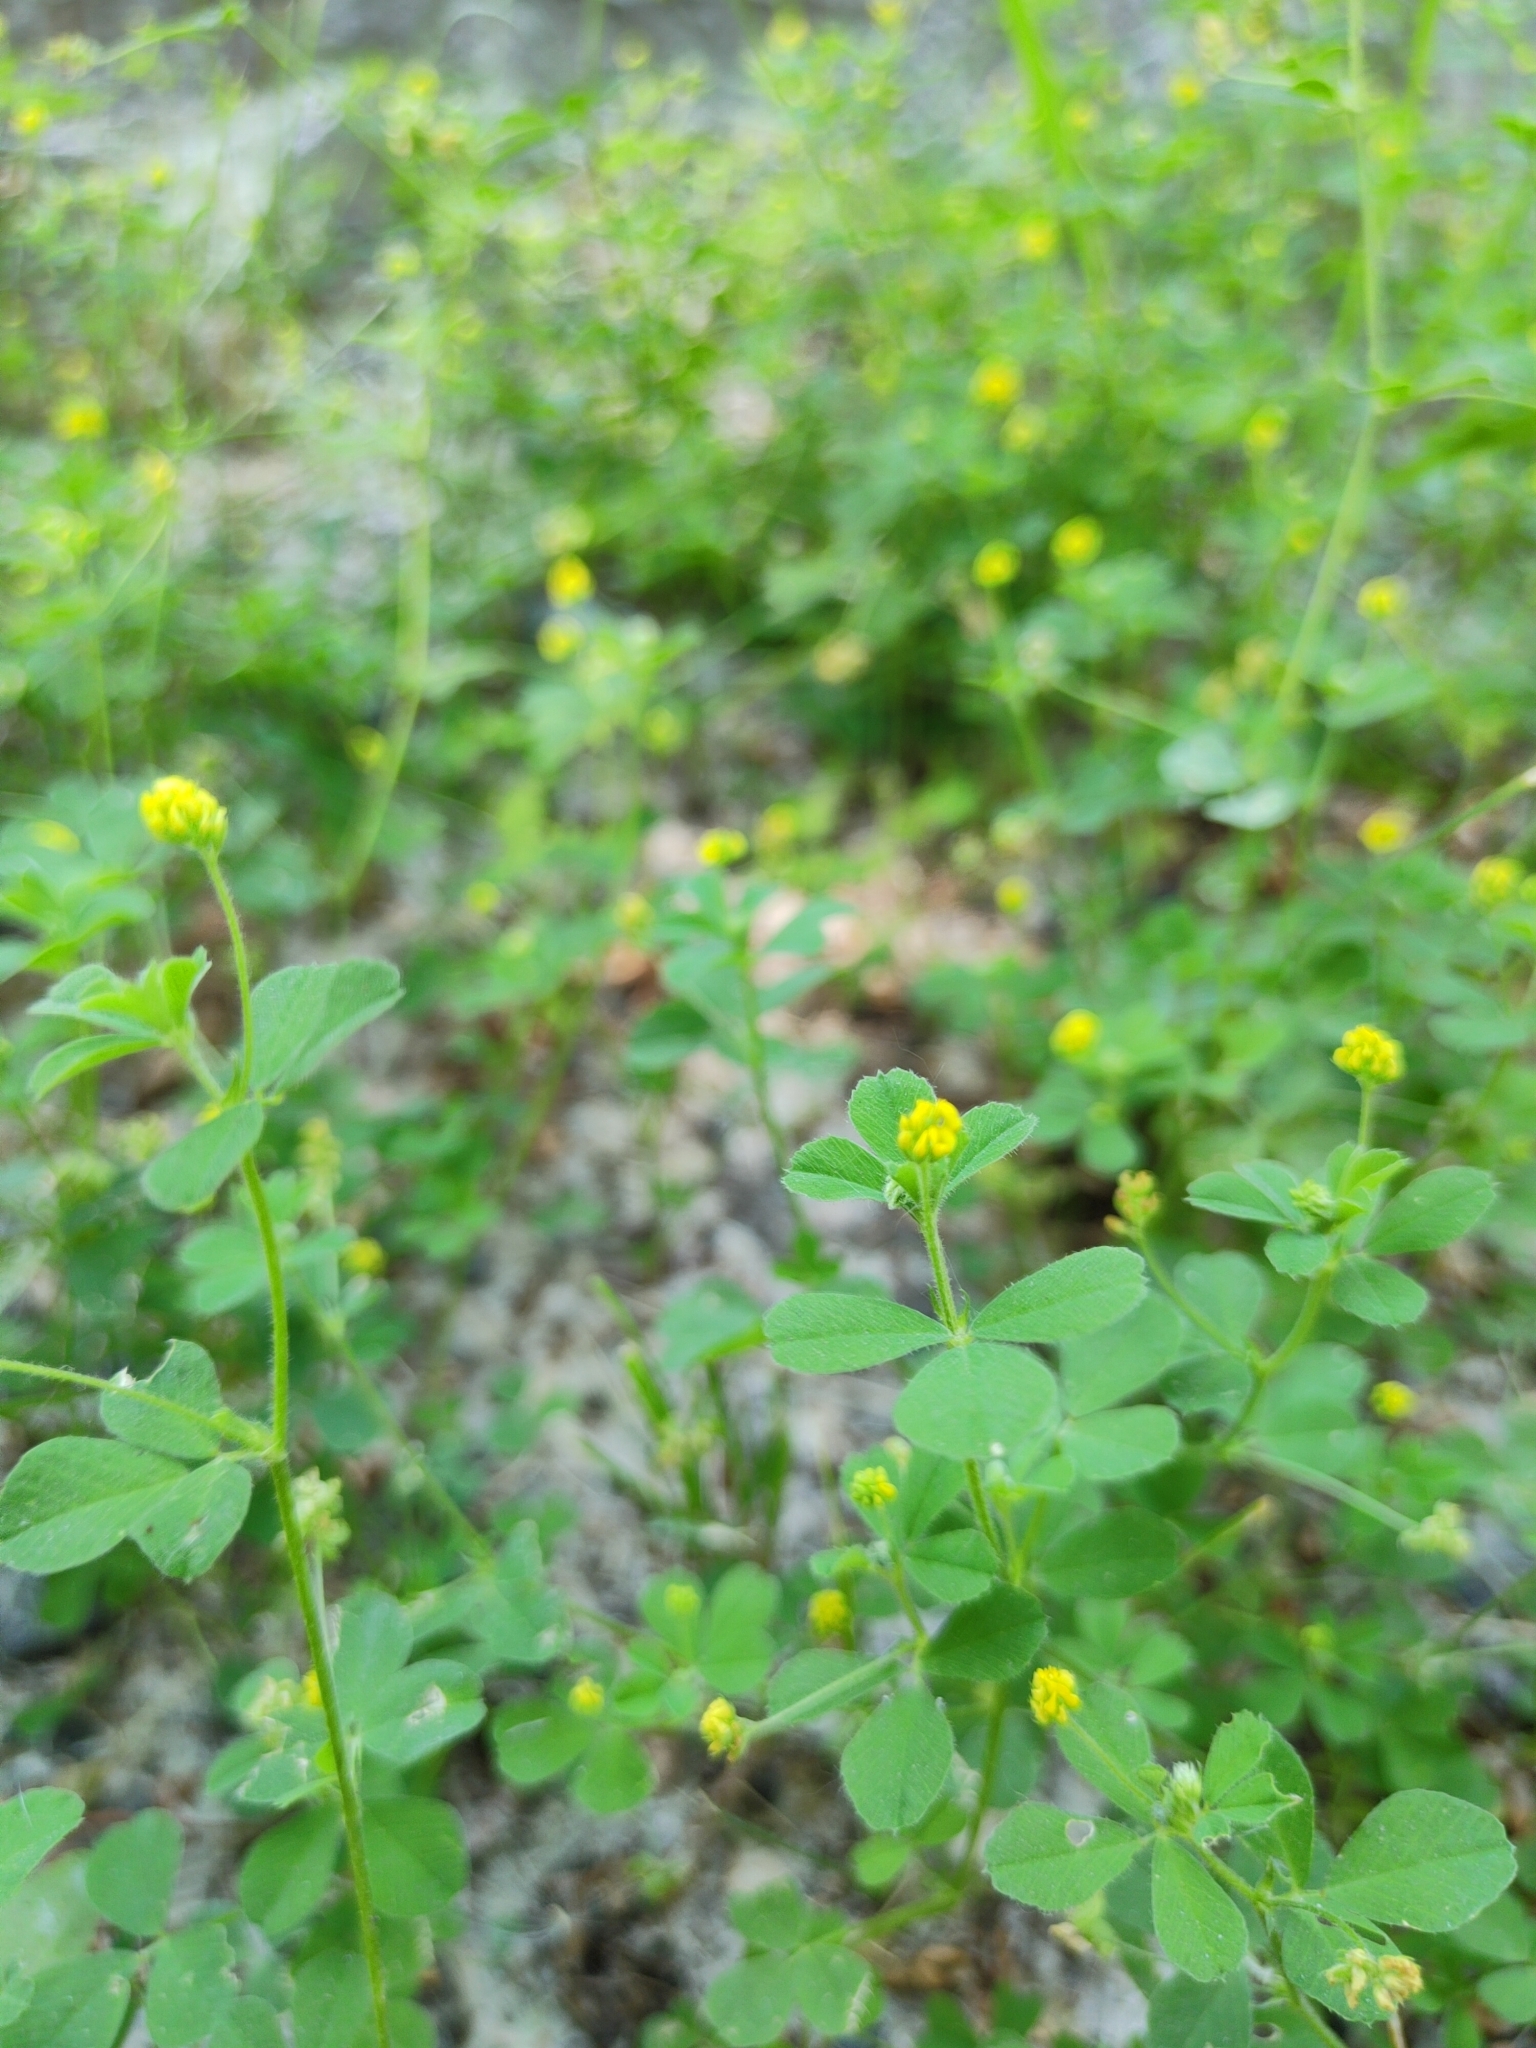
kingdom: Plantae
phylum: Tracheophyta
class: Magnoliopsida
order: Fabales
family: Fabaceae
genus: Medicago
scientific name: Medicago lupulina
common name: Black medick
